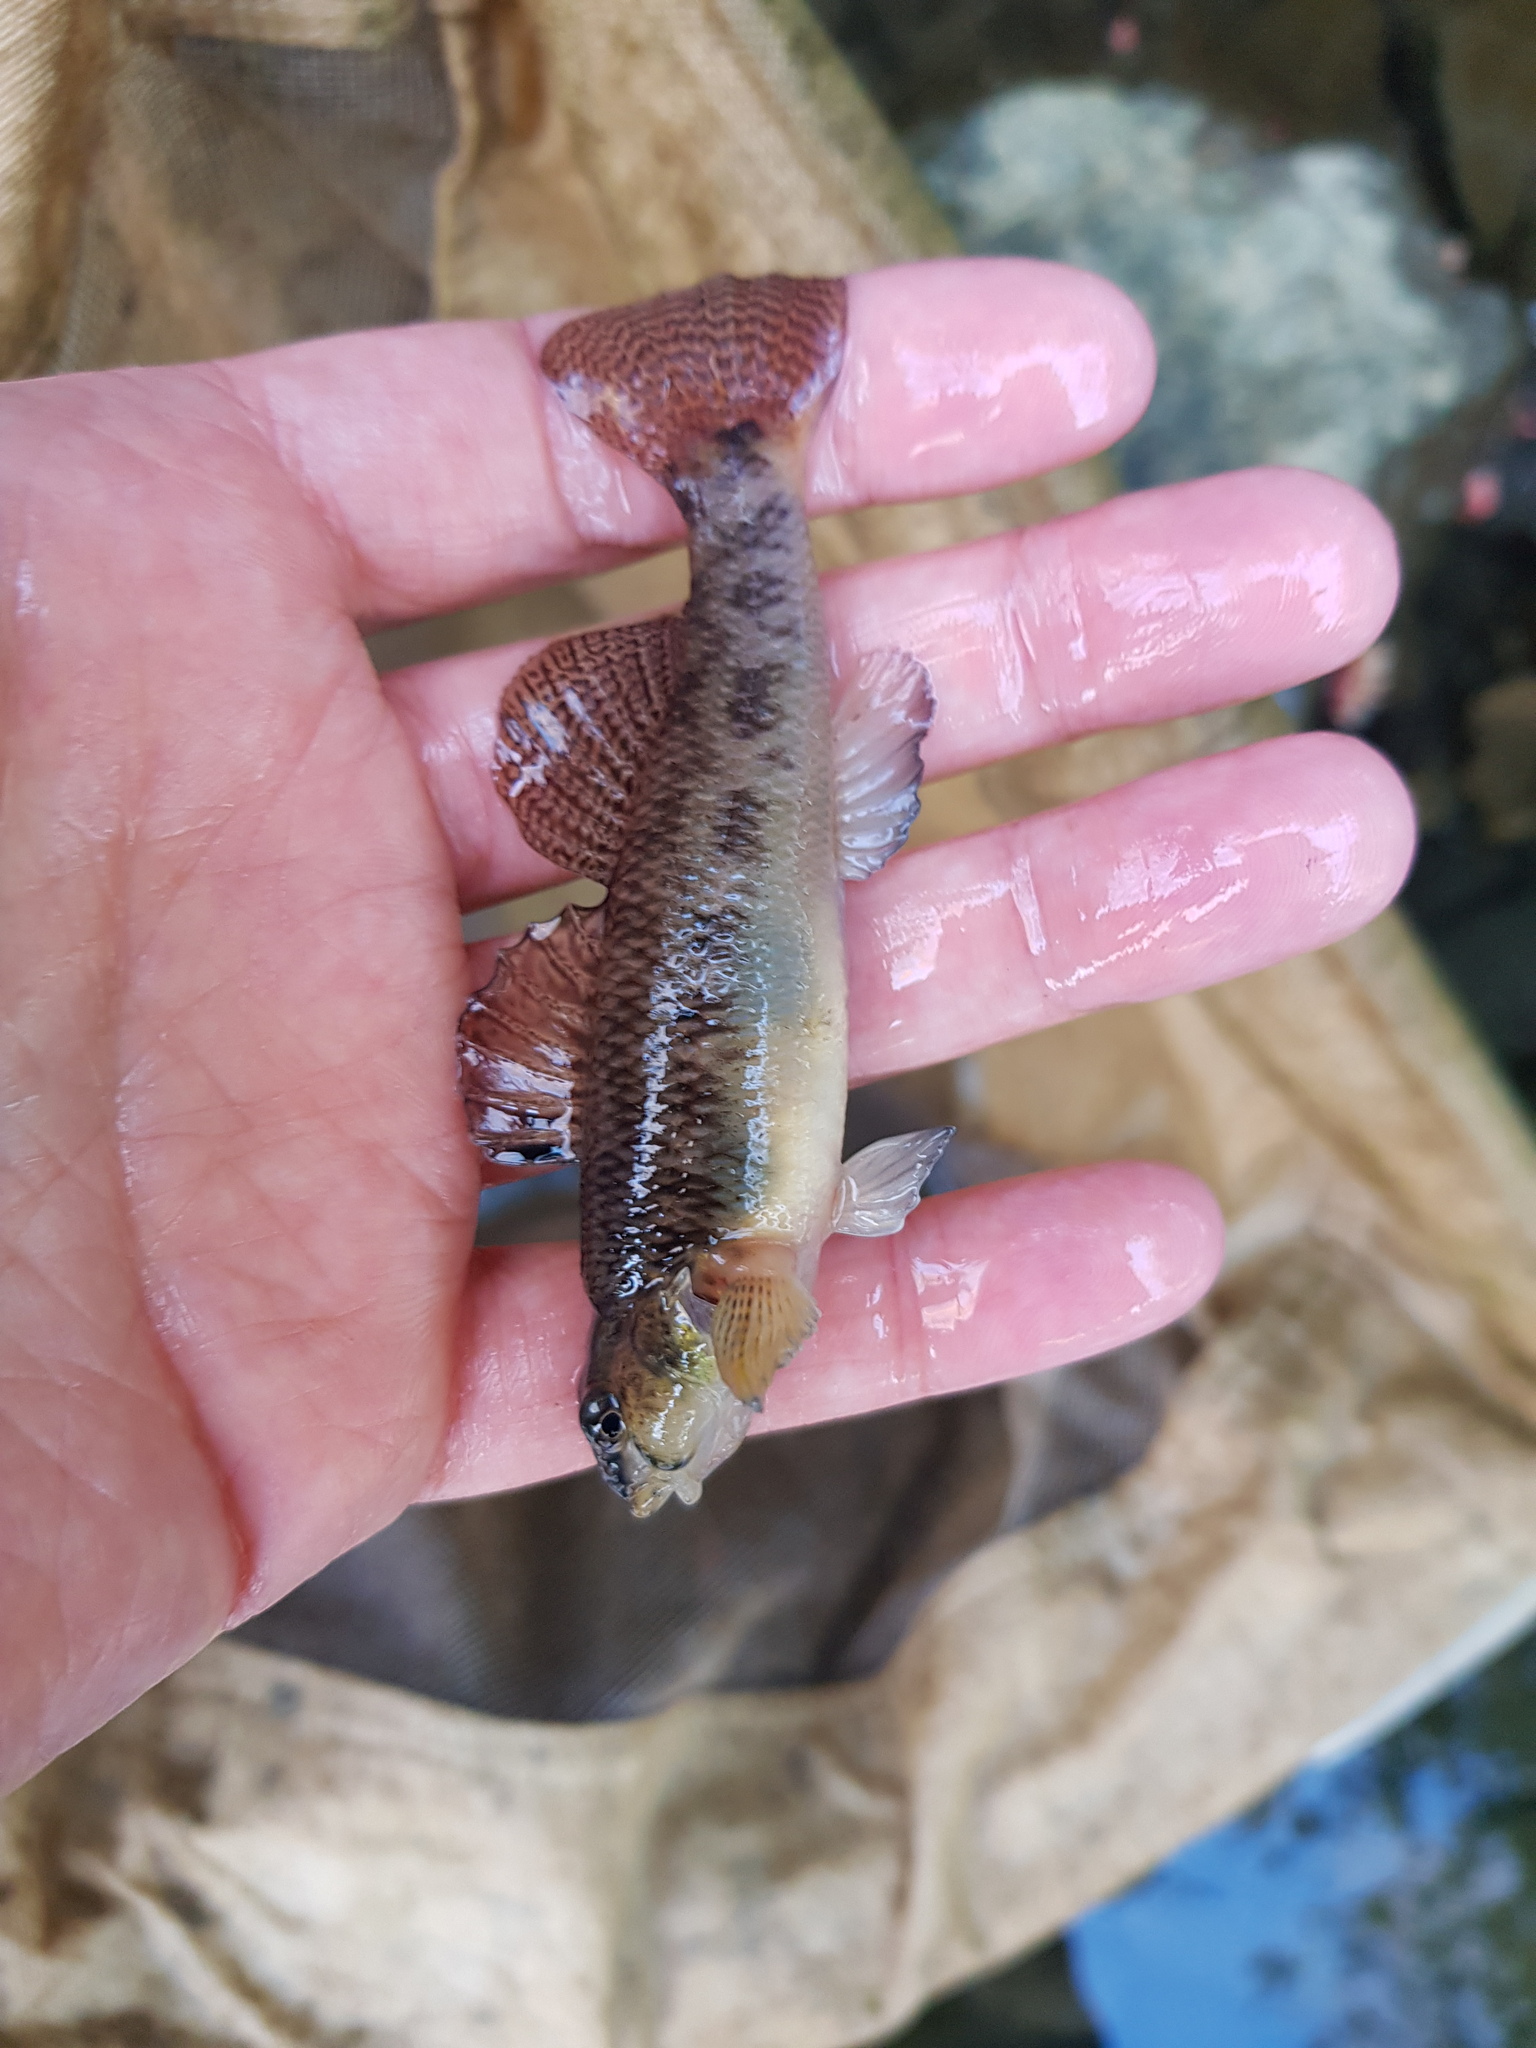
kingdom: Animalia
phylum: Chordata
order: Perciformes
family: Percidae
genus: Etheostoma
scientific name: Etheostoma olmstedi
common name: Tessellated darter
